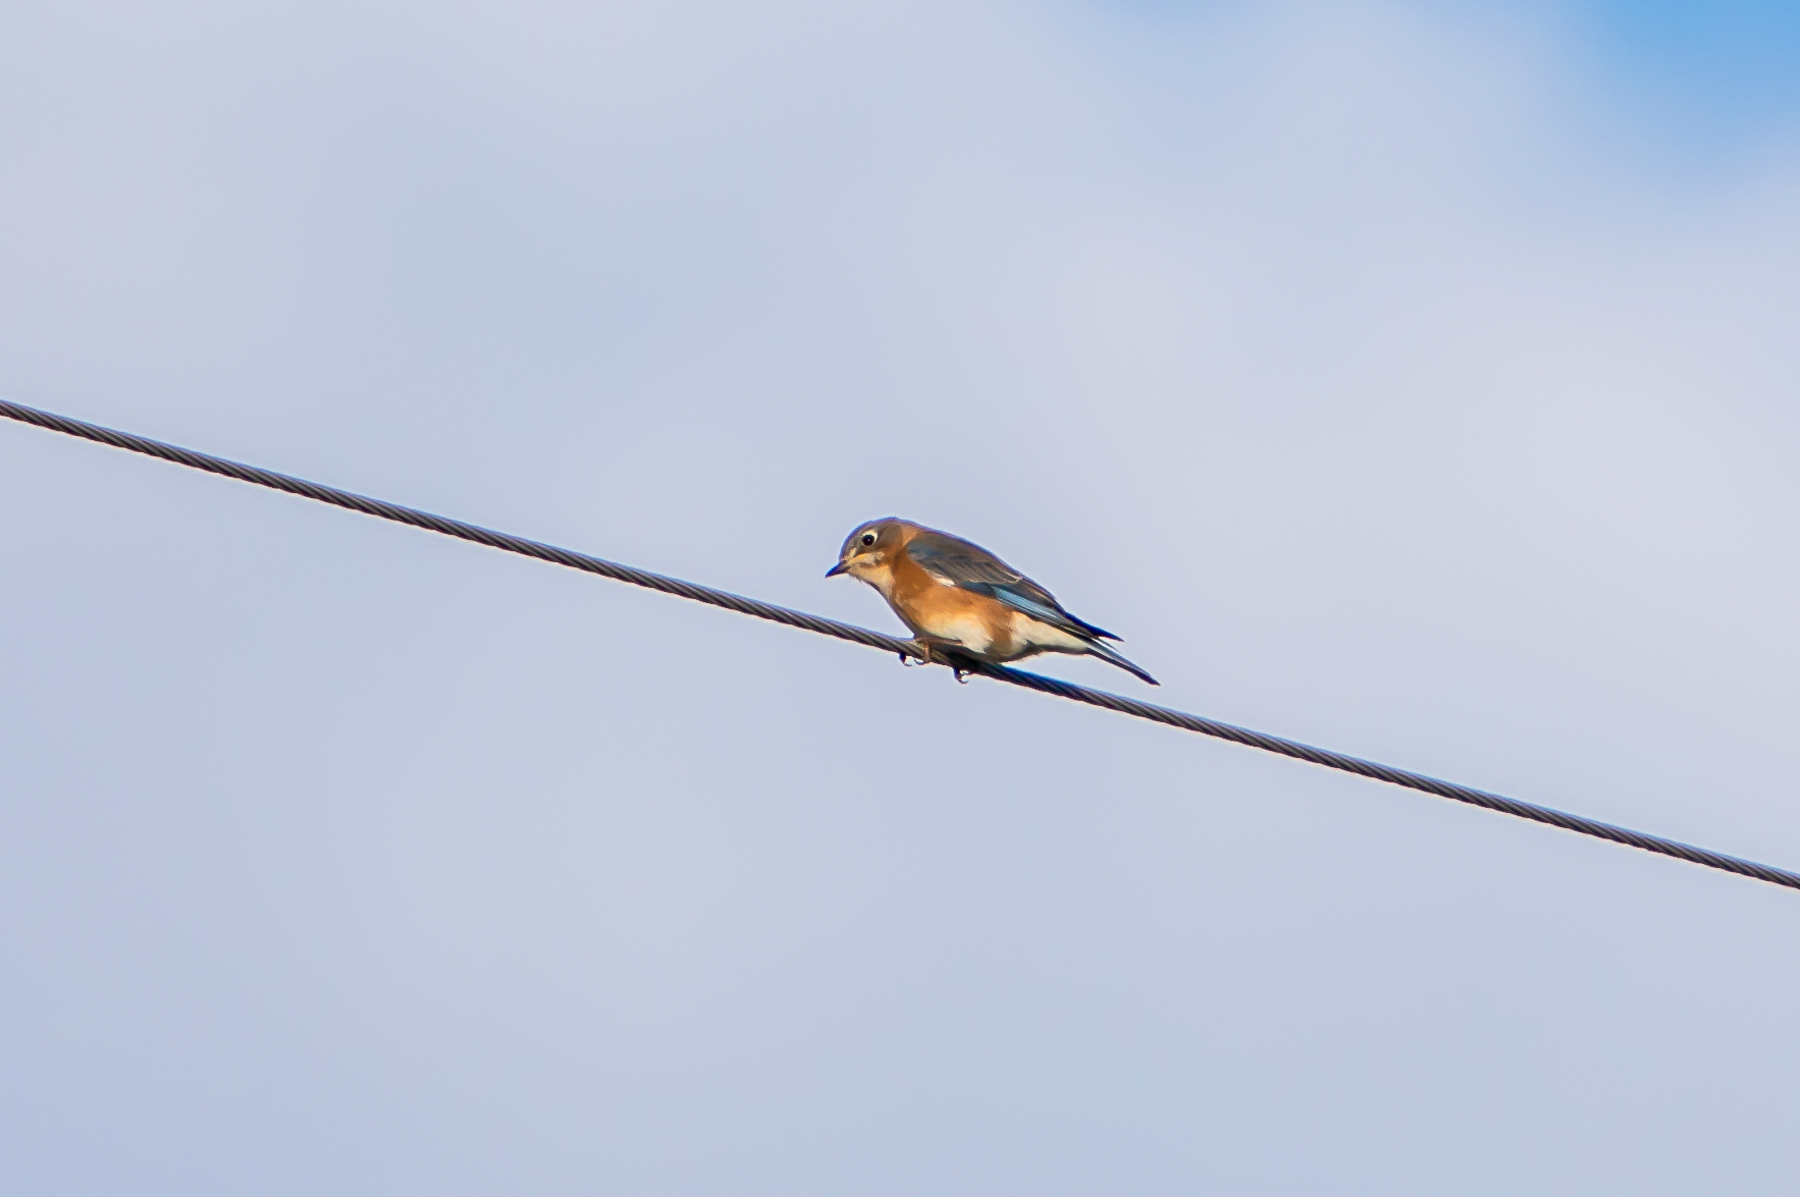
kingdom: Animalia
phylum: Chordata
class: Aves
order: Passeriformes
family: Turdidae
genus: Sialia
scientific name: Sialia sialis
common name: Eastern bluebird
